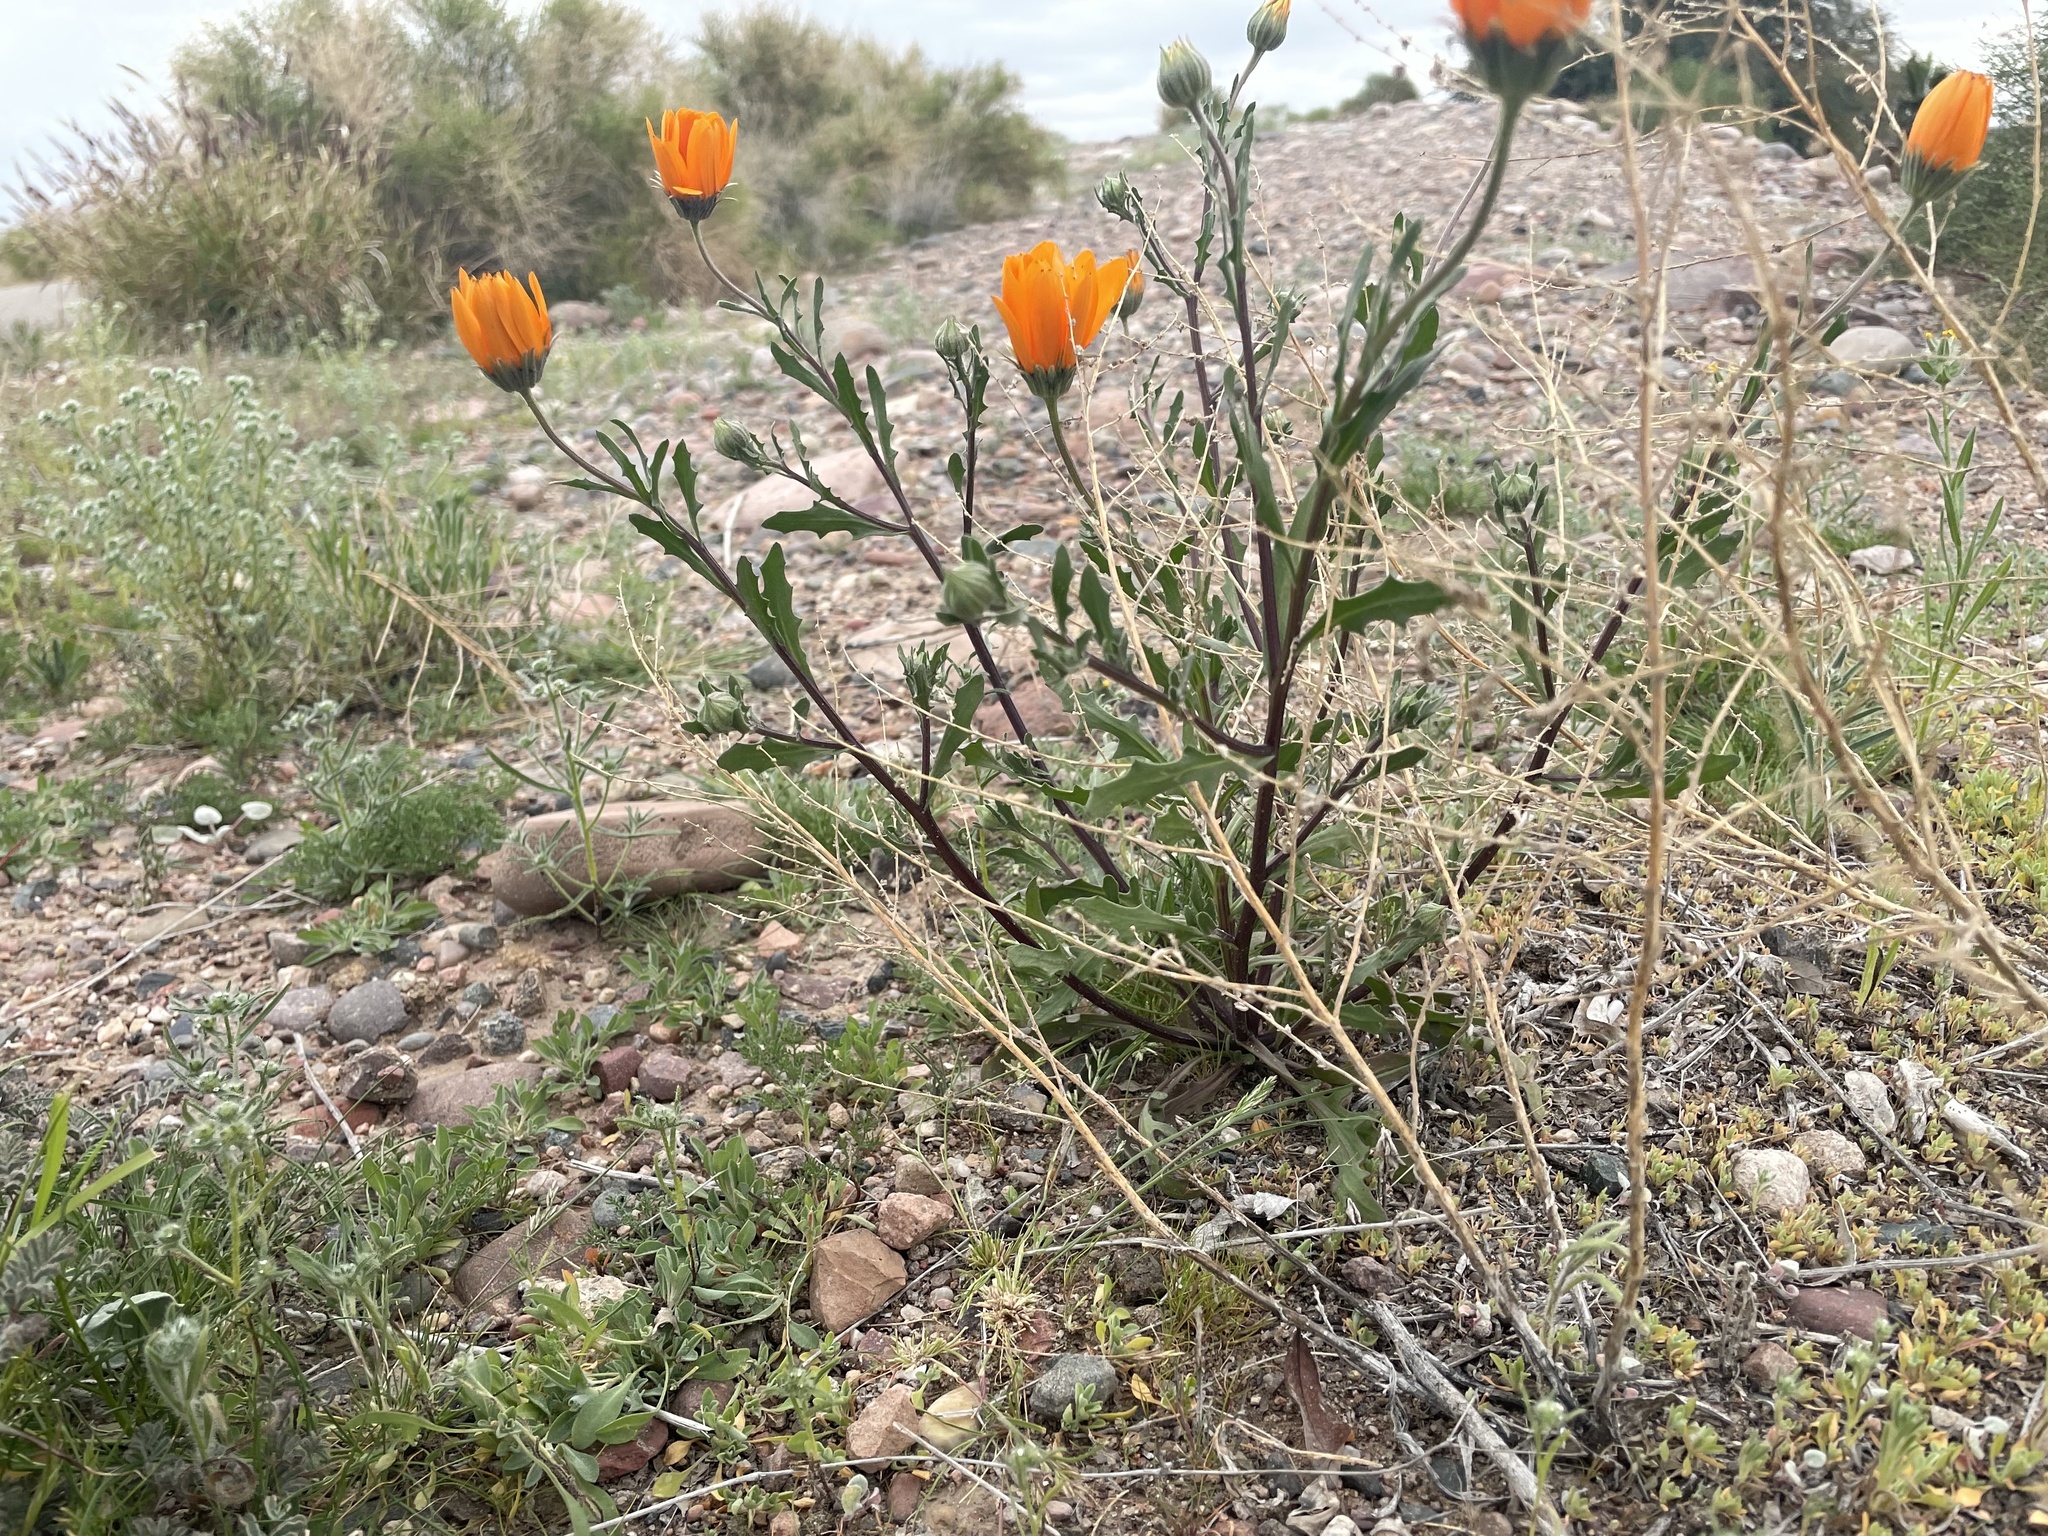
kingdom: Plantae
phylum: Tracheophyta
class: Magnoliopsida
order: Asterales
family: Asteraceae
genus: Dimorphotheca
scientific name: Dimorphotheca sinuata
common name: Glandular cape marigold
